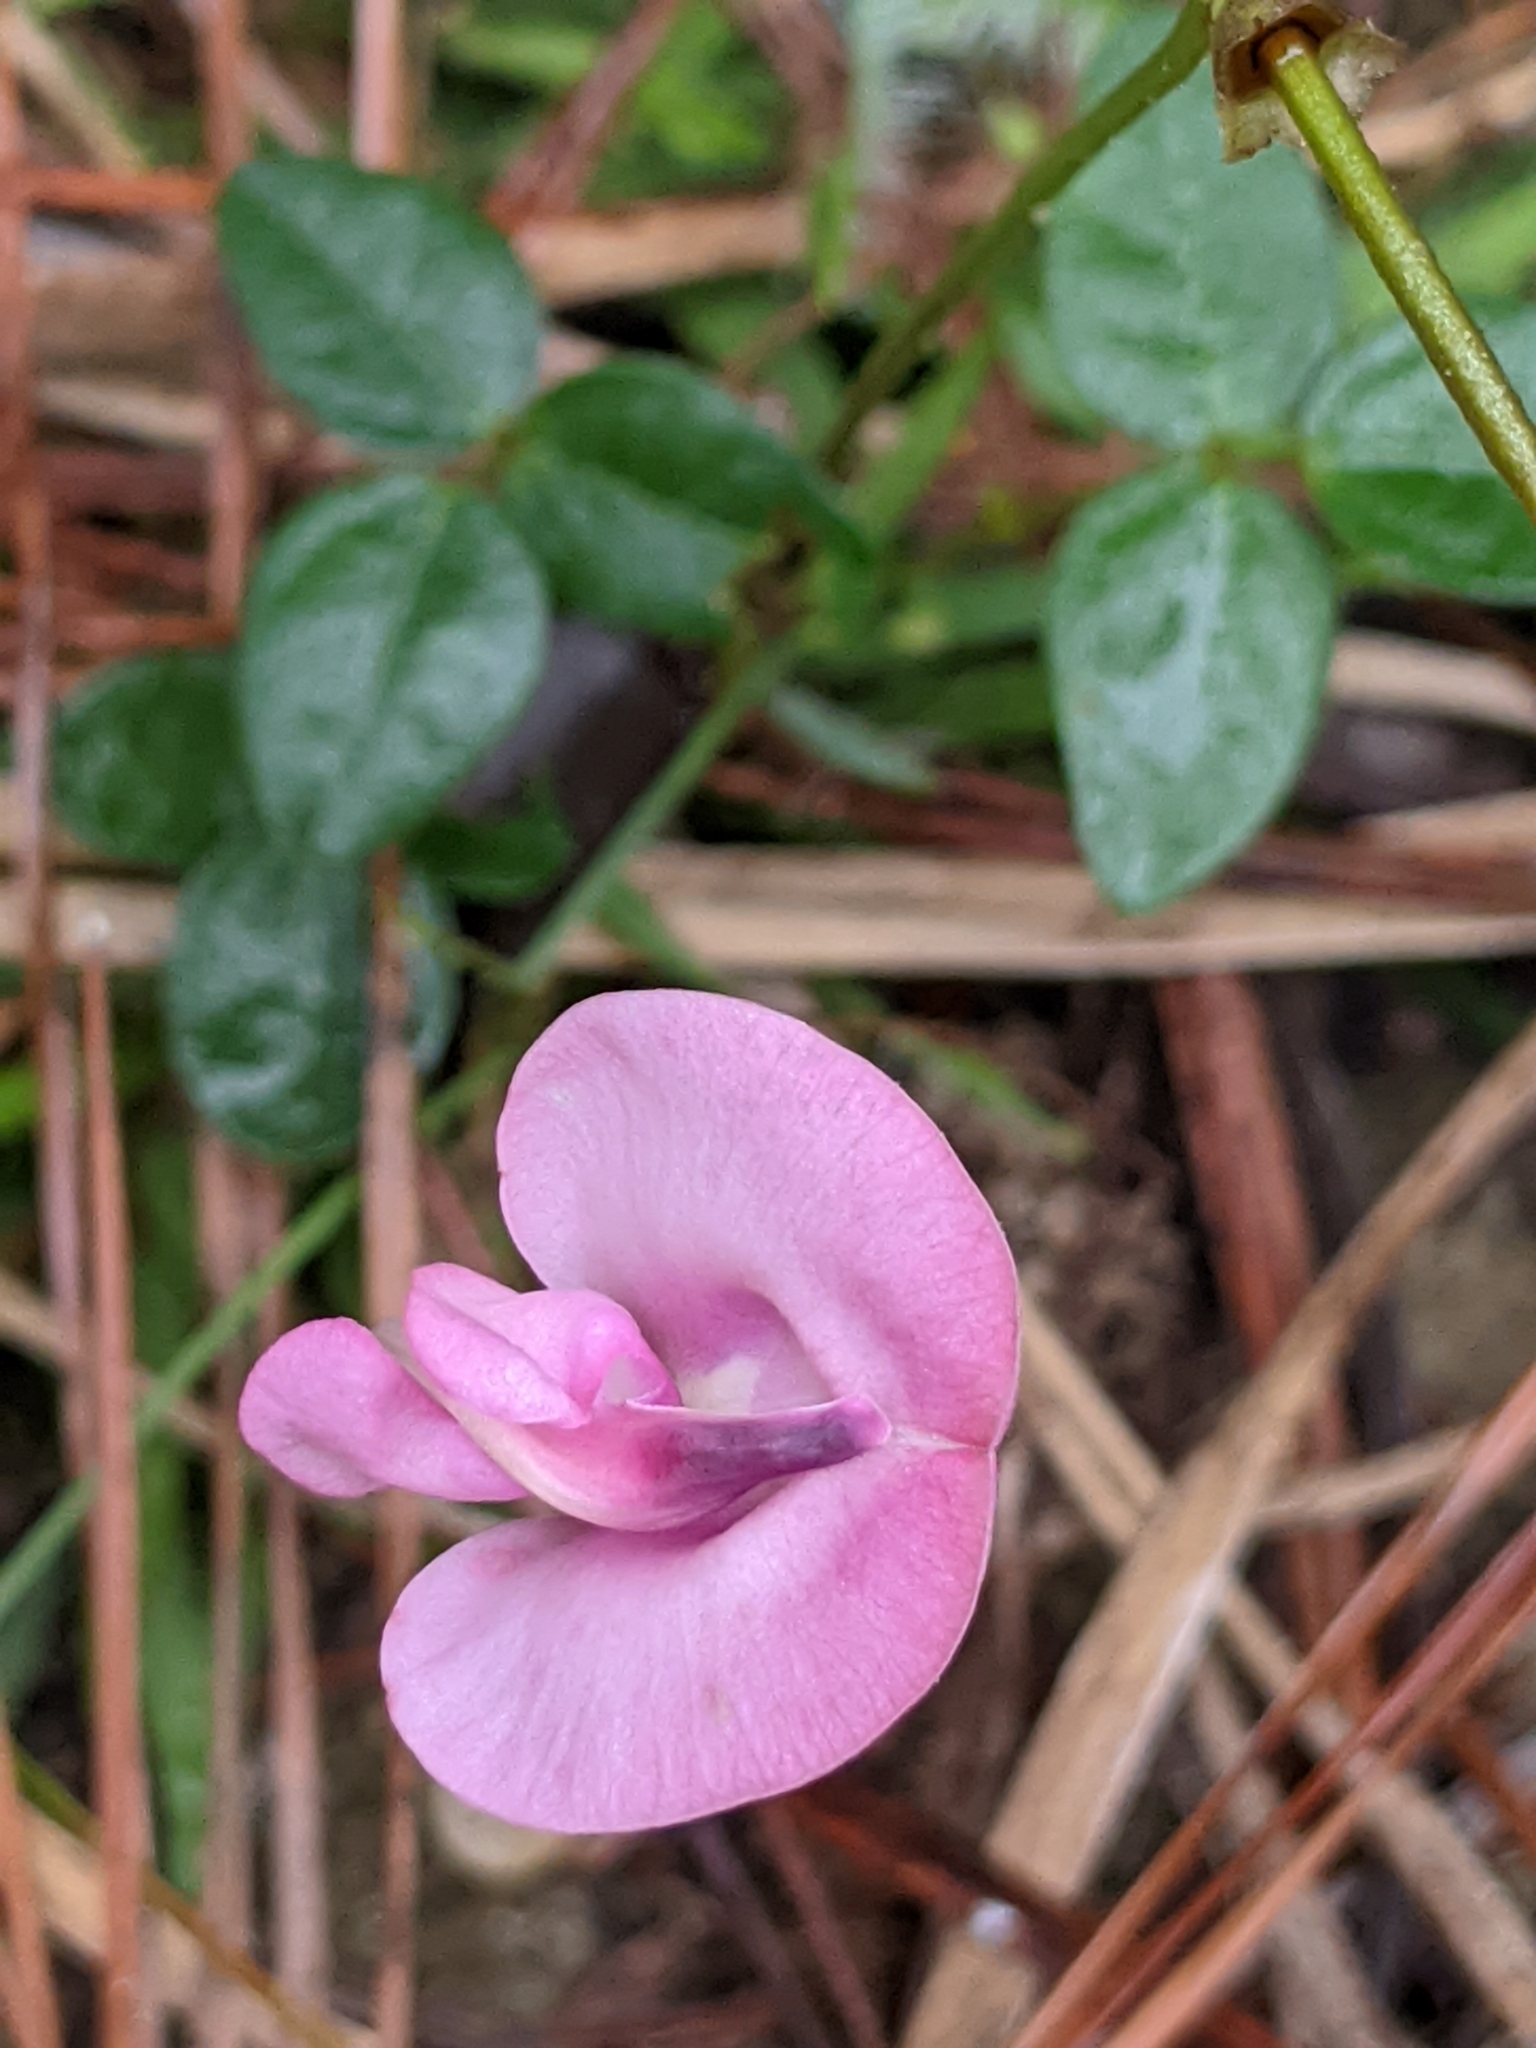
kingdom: Plantae
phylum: Tracheophyta
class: Magnoliopsida
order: Fabales
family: Fabaceae
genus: Strophostyles
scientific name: Strophostyles umbellata
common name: Perennial wild bean
